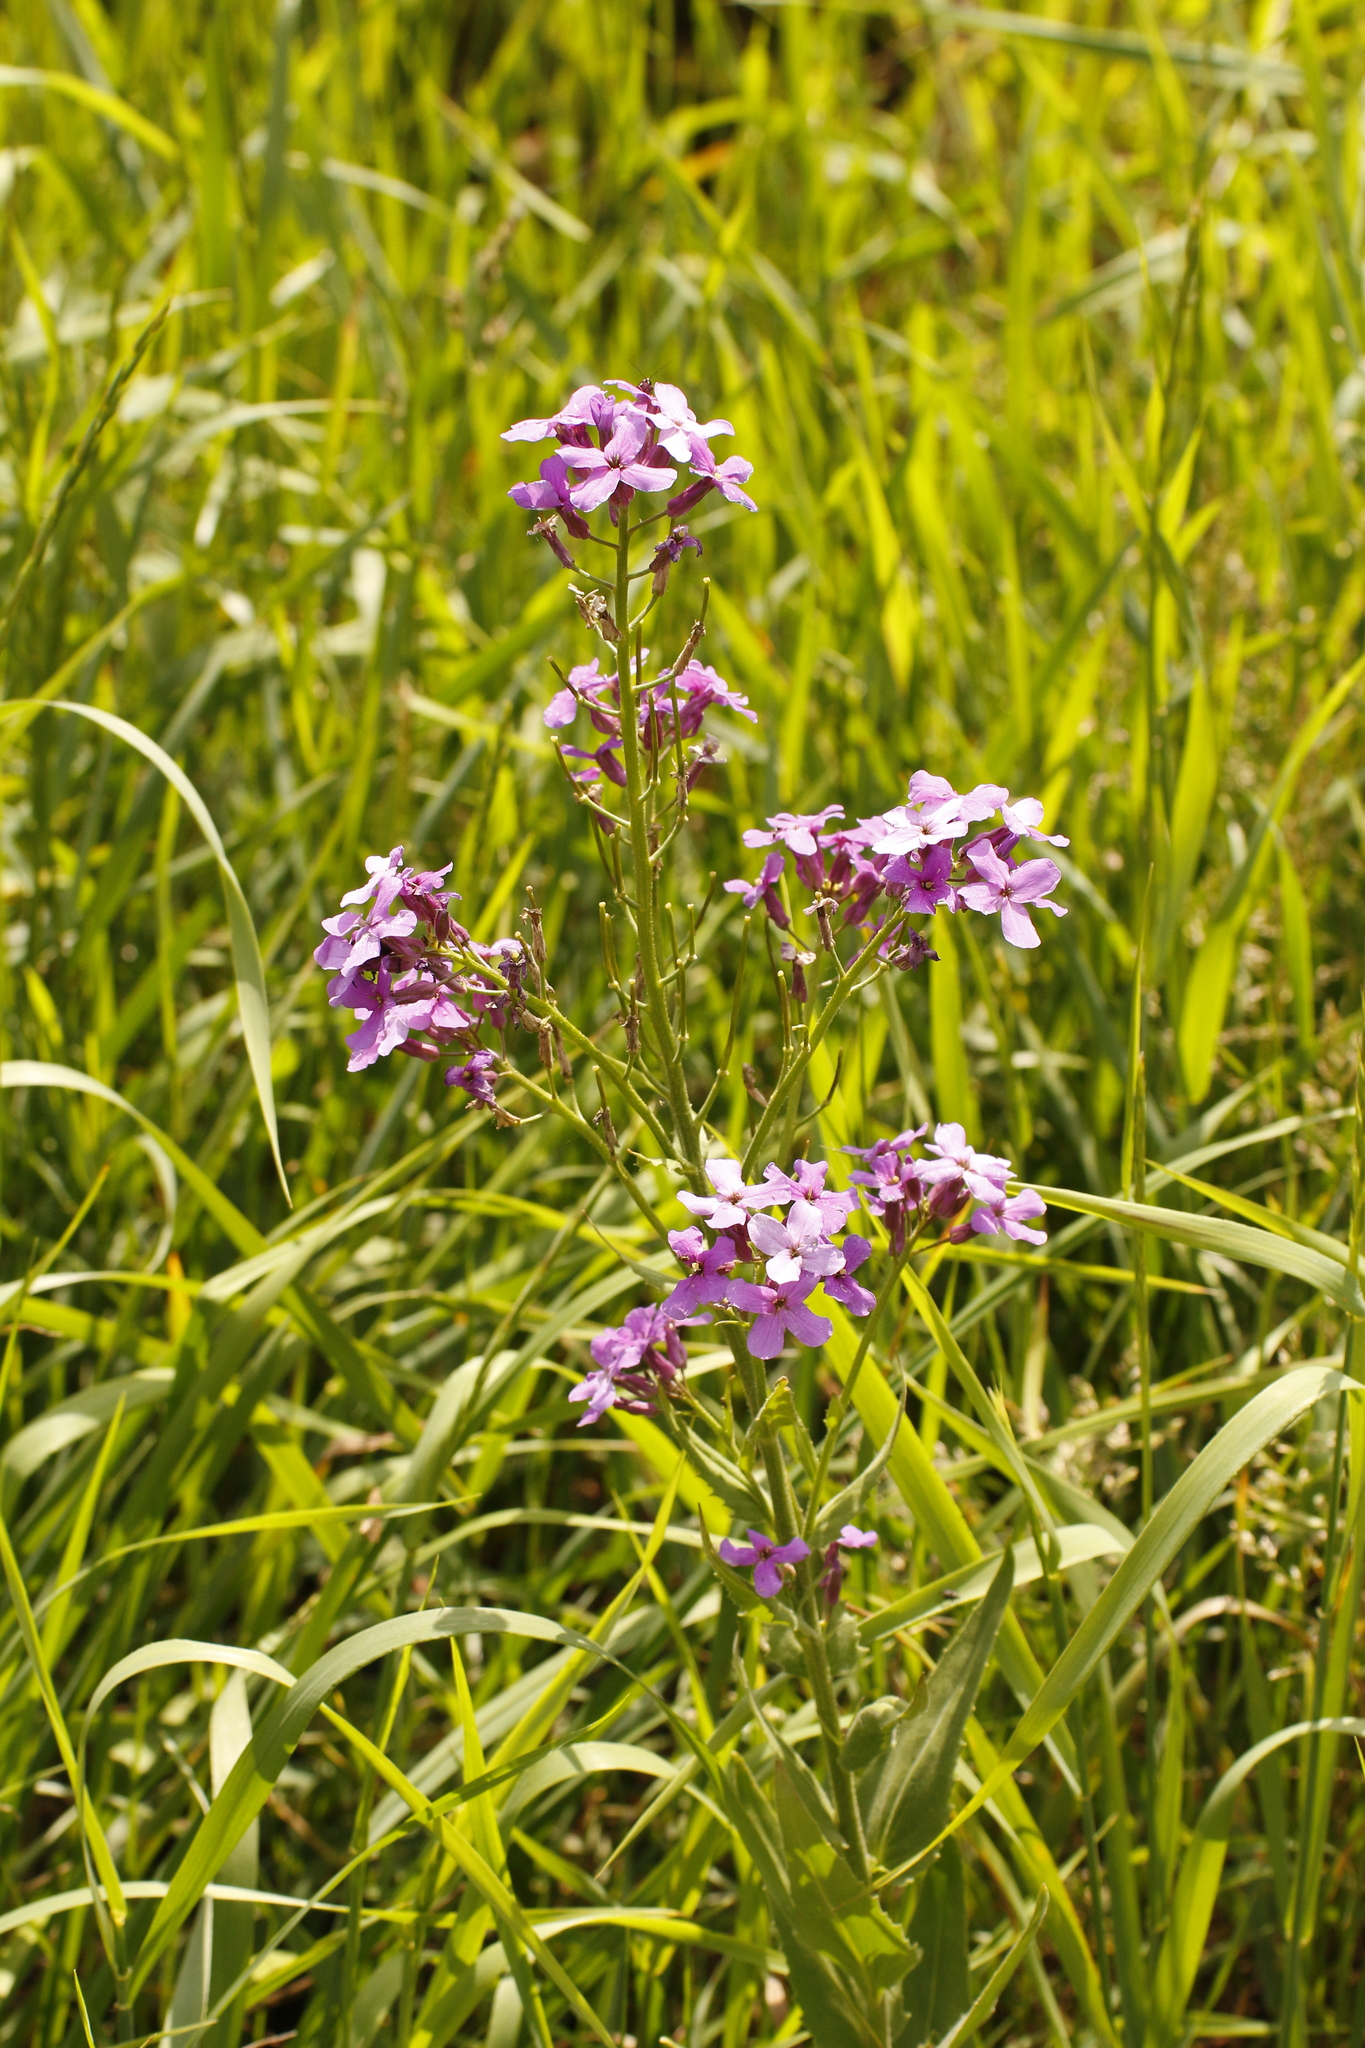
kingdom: Plantae
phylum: Tracheophyta
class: Magnoliopsida
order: Brassicales
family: Brassicaceae
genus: Hesperis
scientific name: Hesperis matronalis
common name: Dame's-violet
